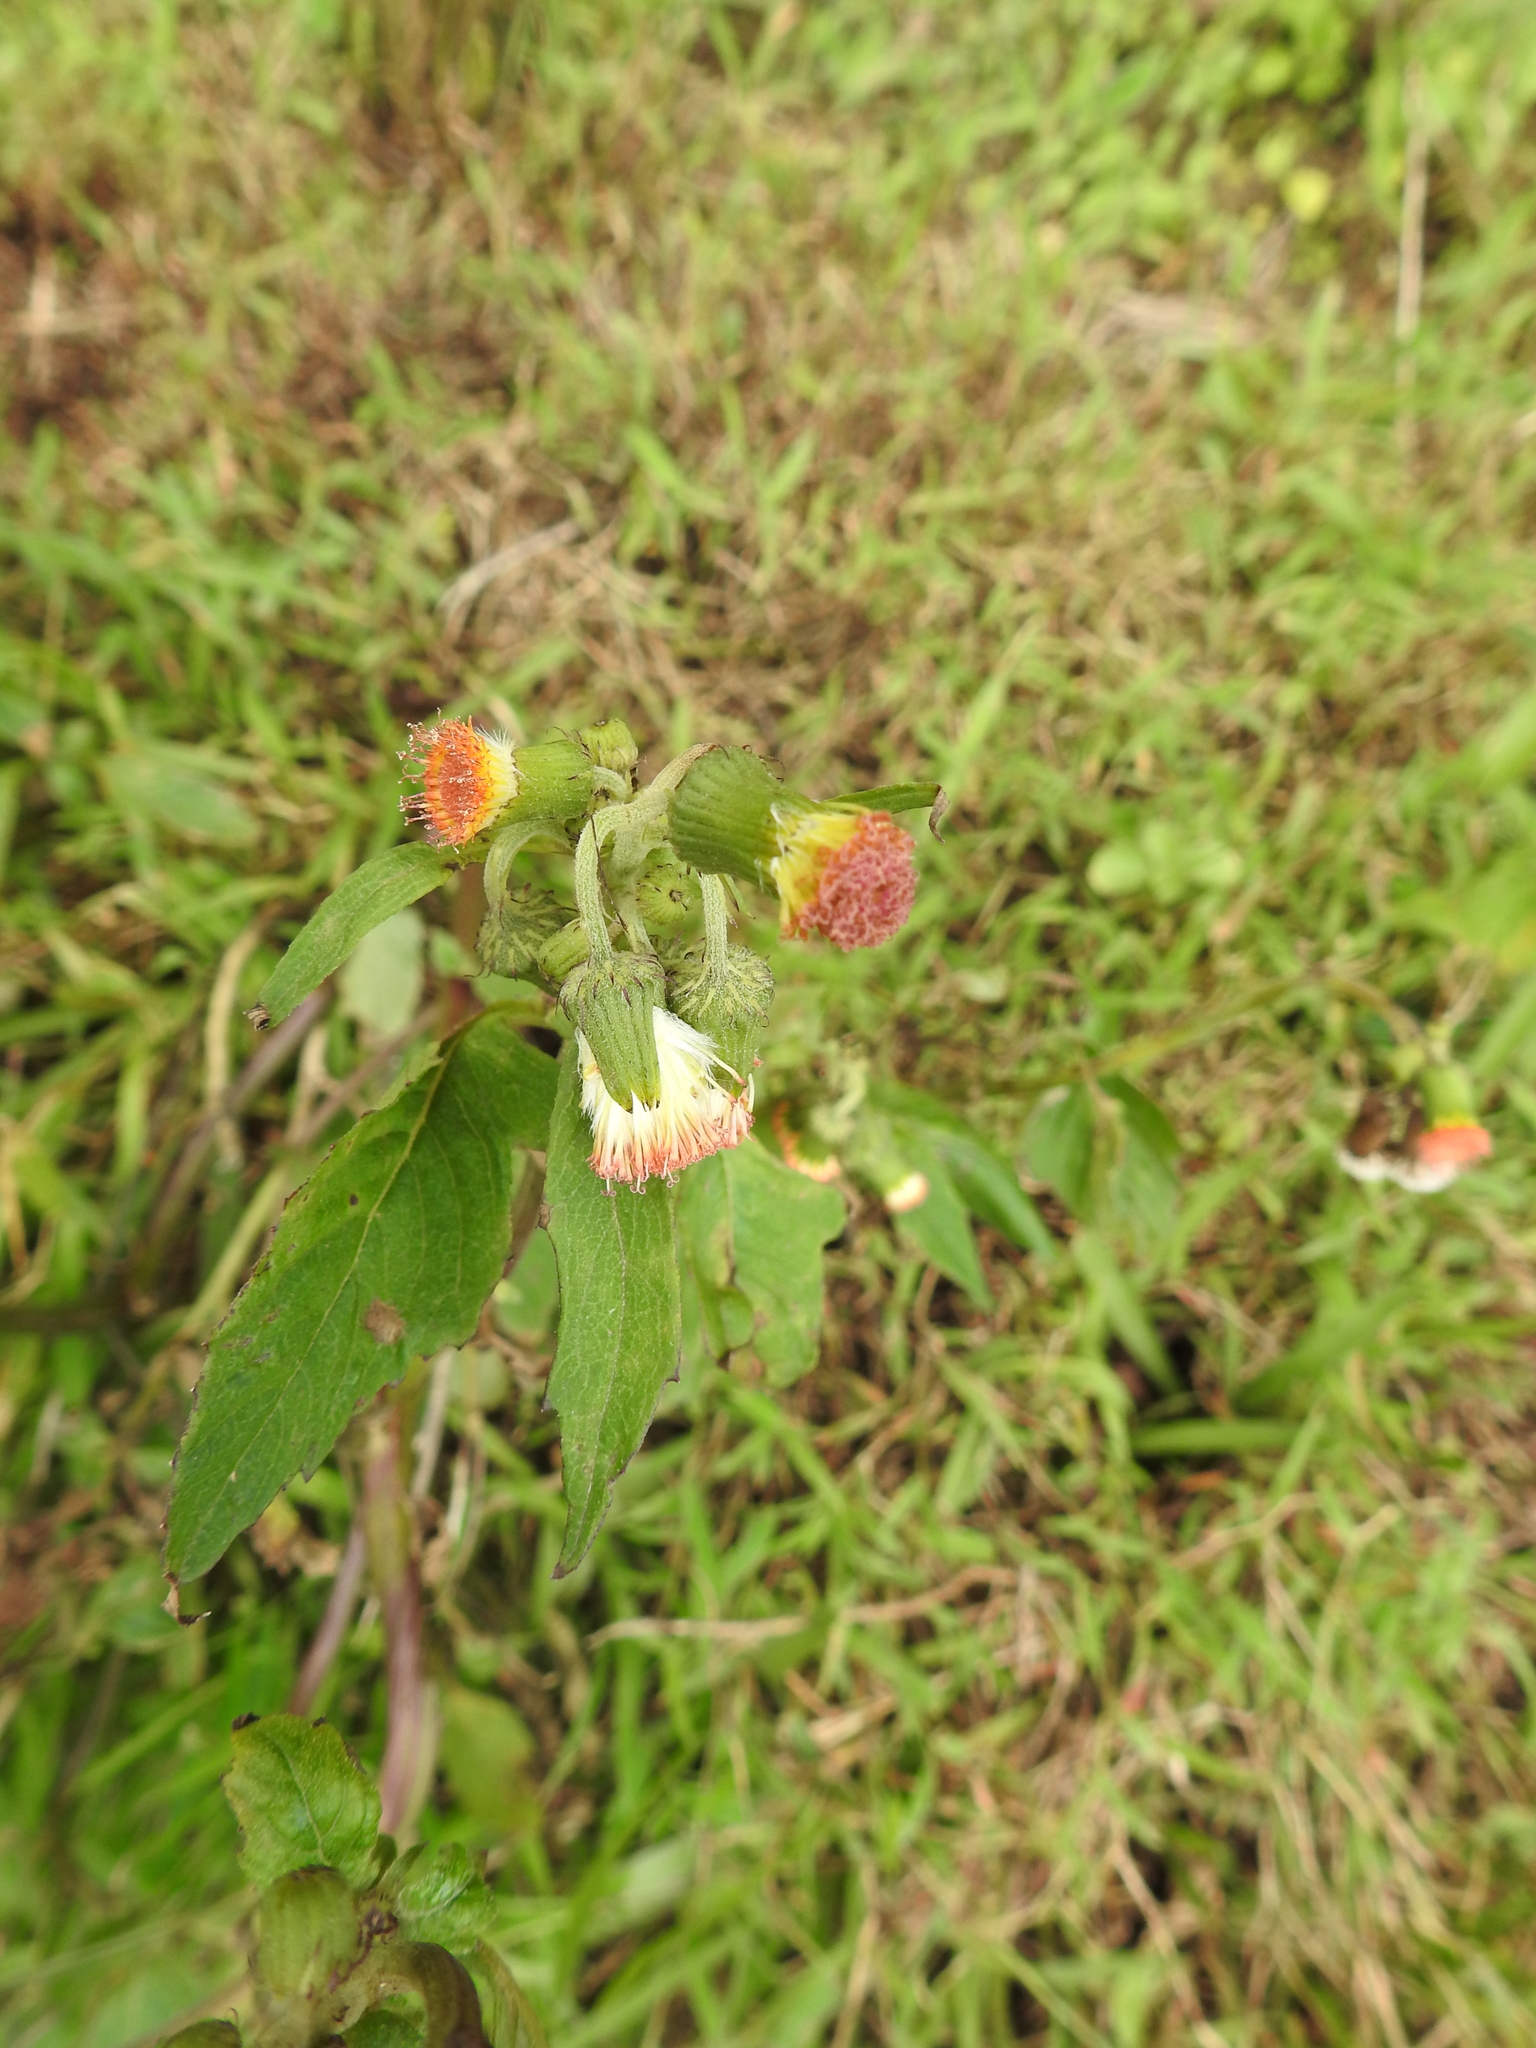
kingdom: Plantae
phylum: Tracheophyta
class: Magnoliopsida
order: Asterales
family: Asteraceae
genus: Crassocephalum
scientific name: Crassocephalum crepidioides
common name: Redflower ragleaf
